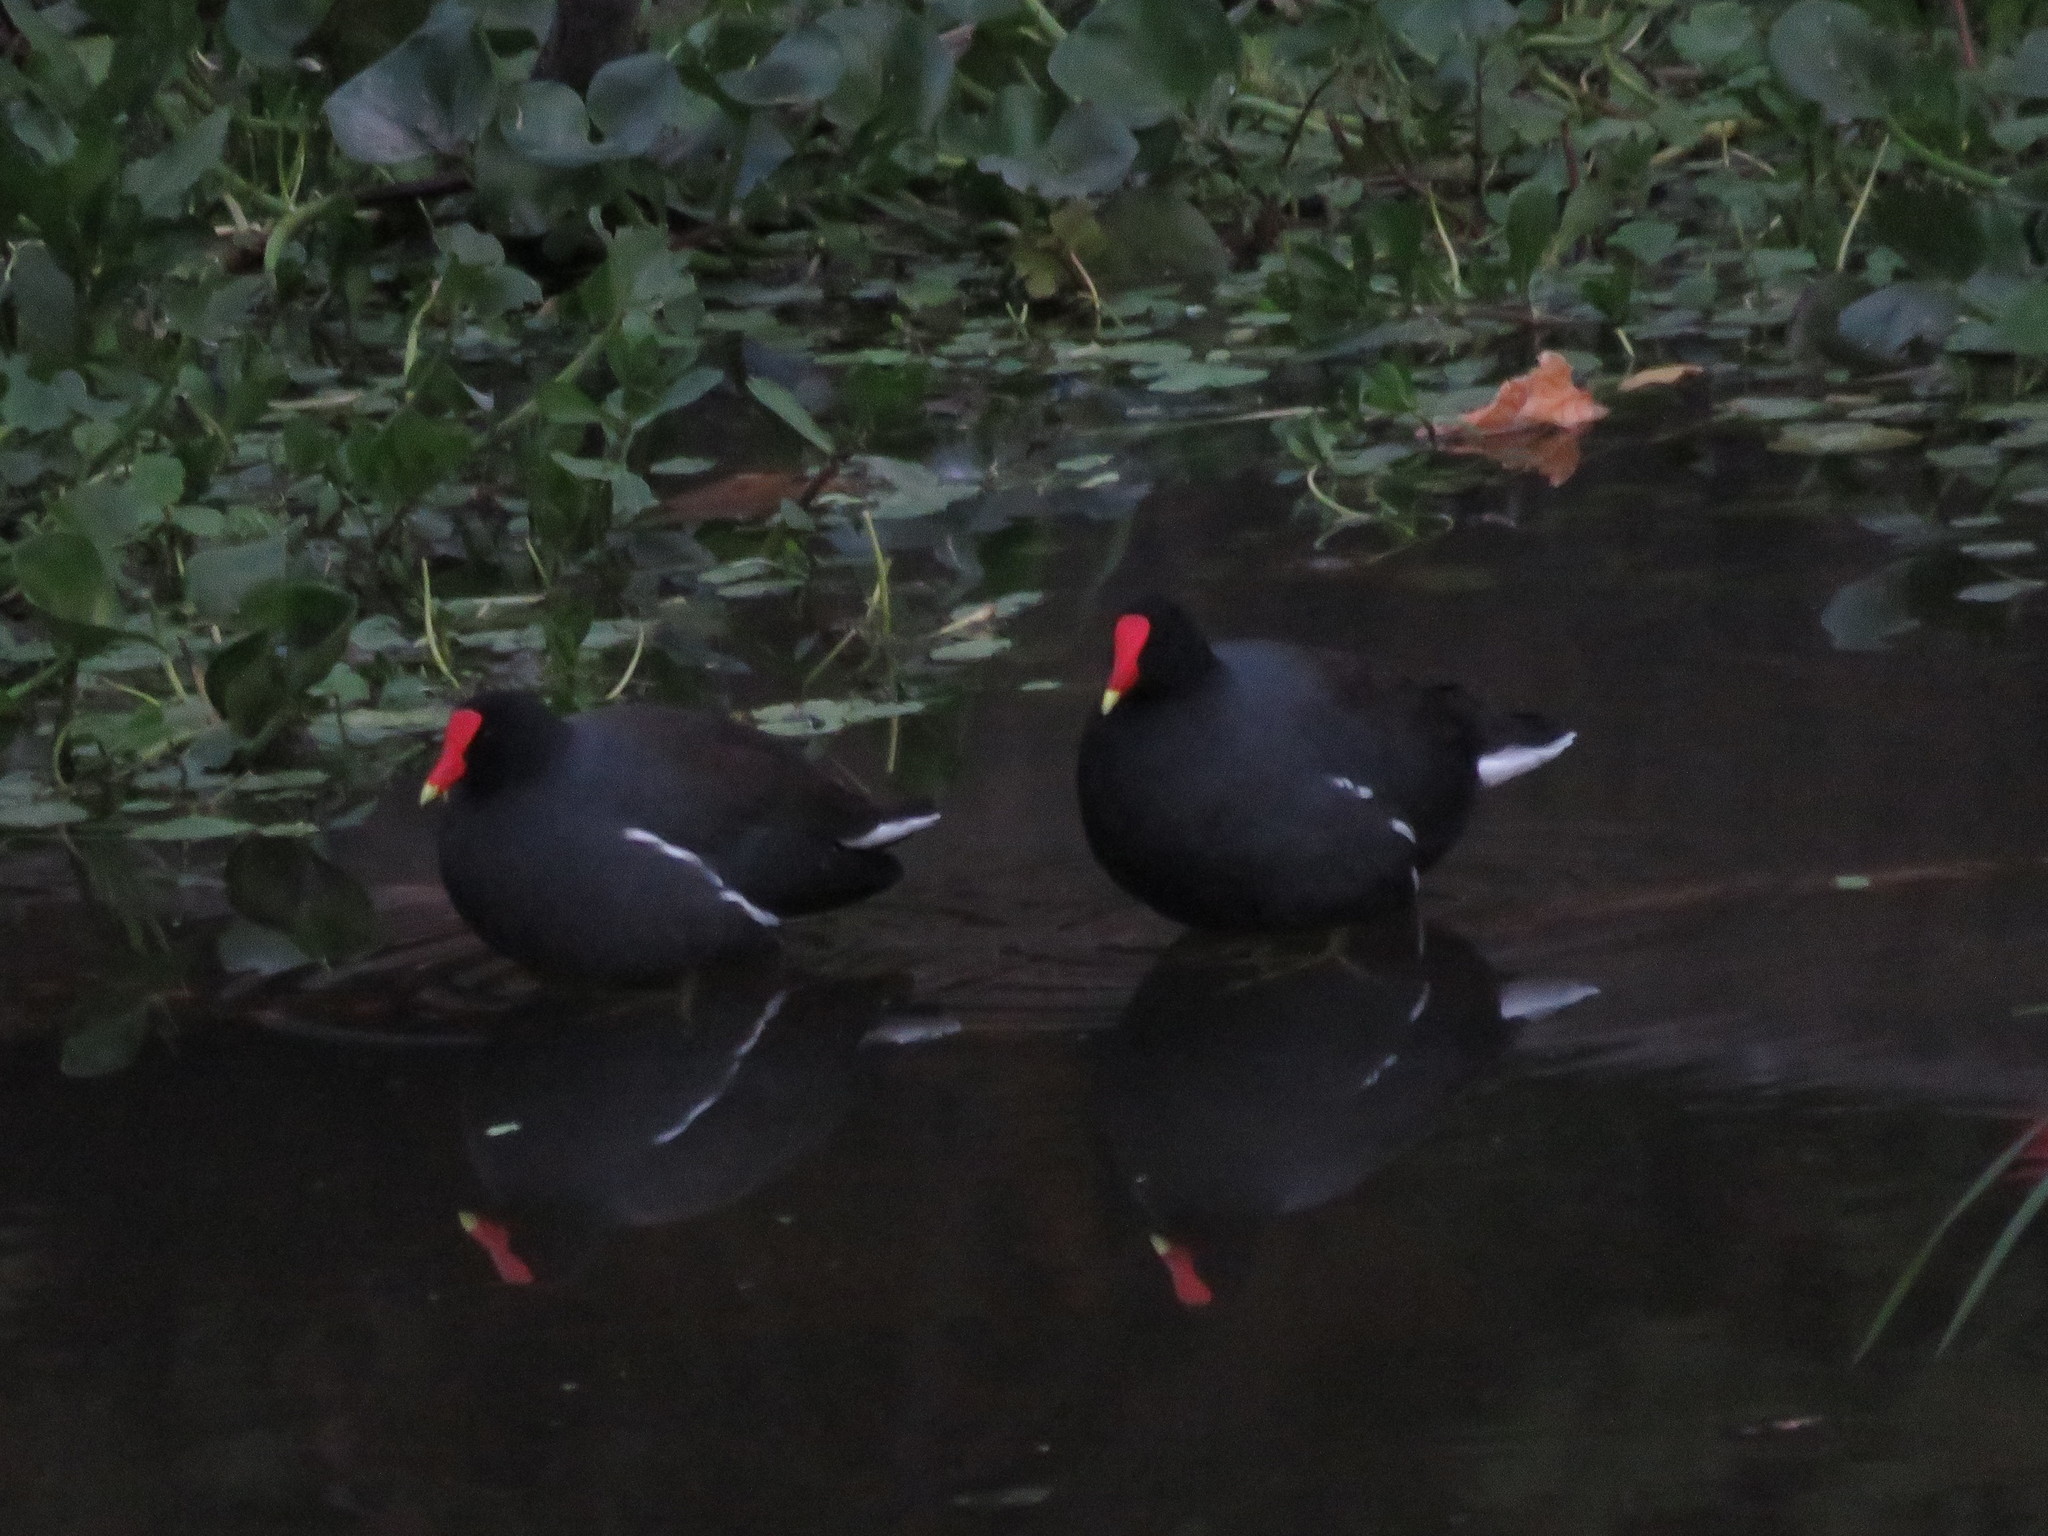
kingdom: Animalia
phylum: Chordata
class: Aves
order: Gruiformes
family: Rallidae
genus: Gallinula
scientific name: Gallinula chloropus
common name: Common moorhen
